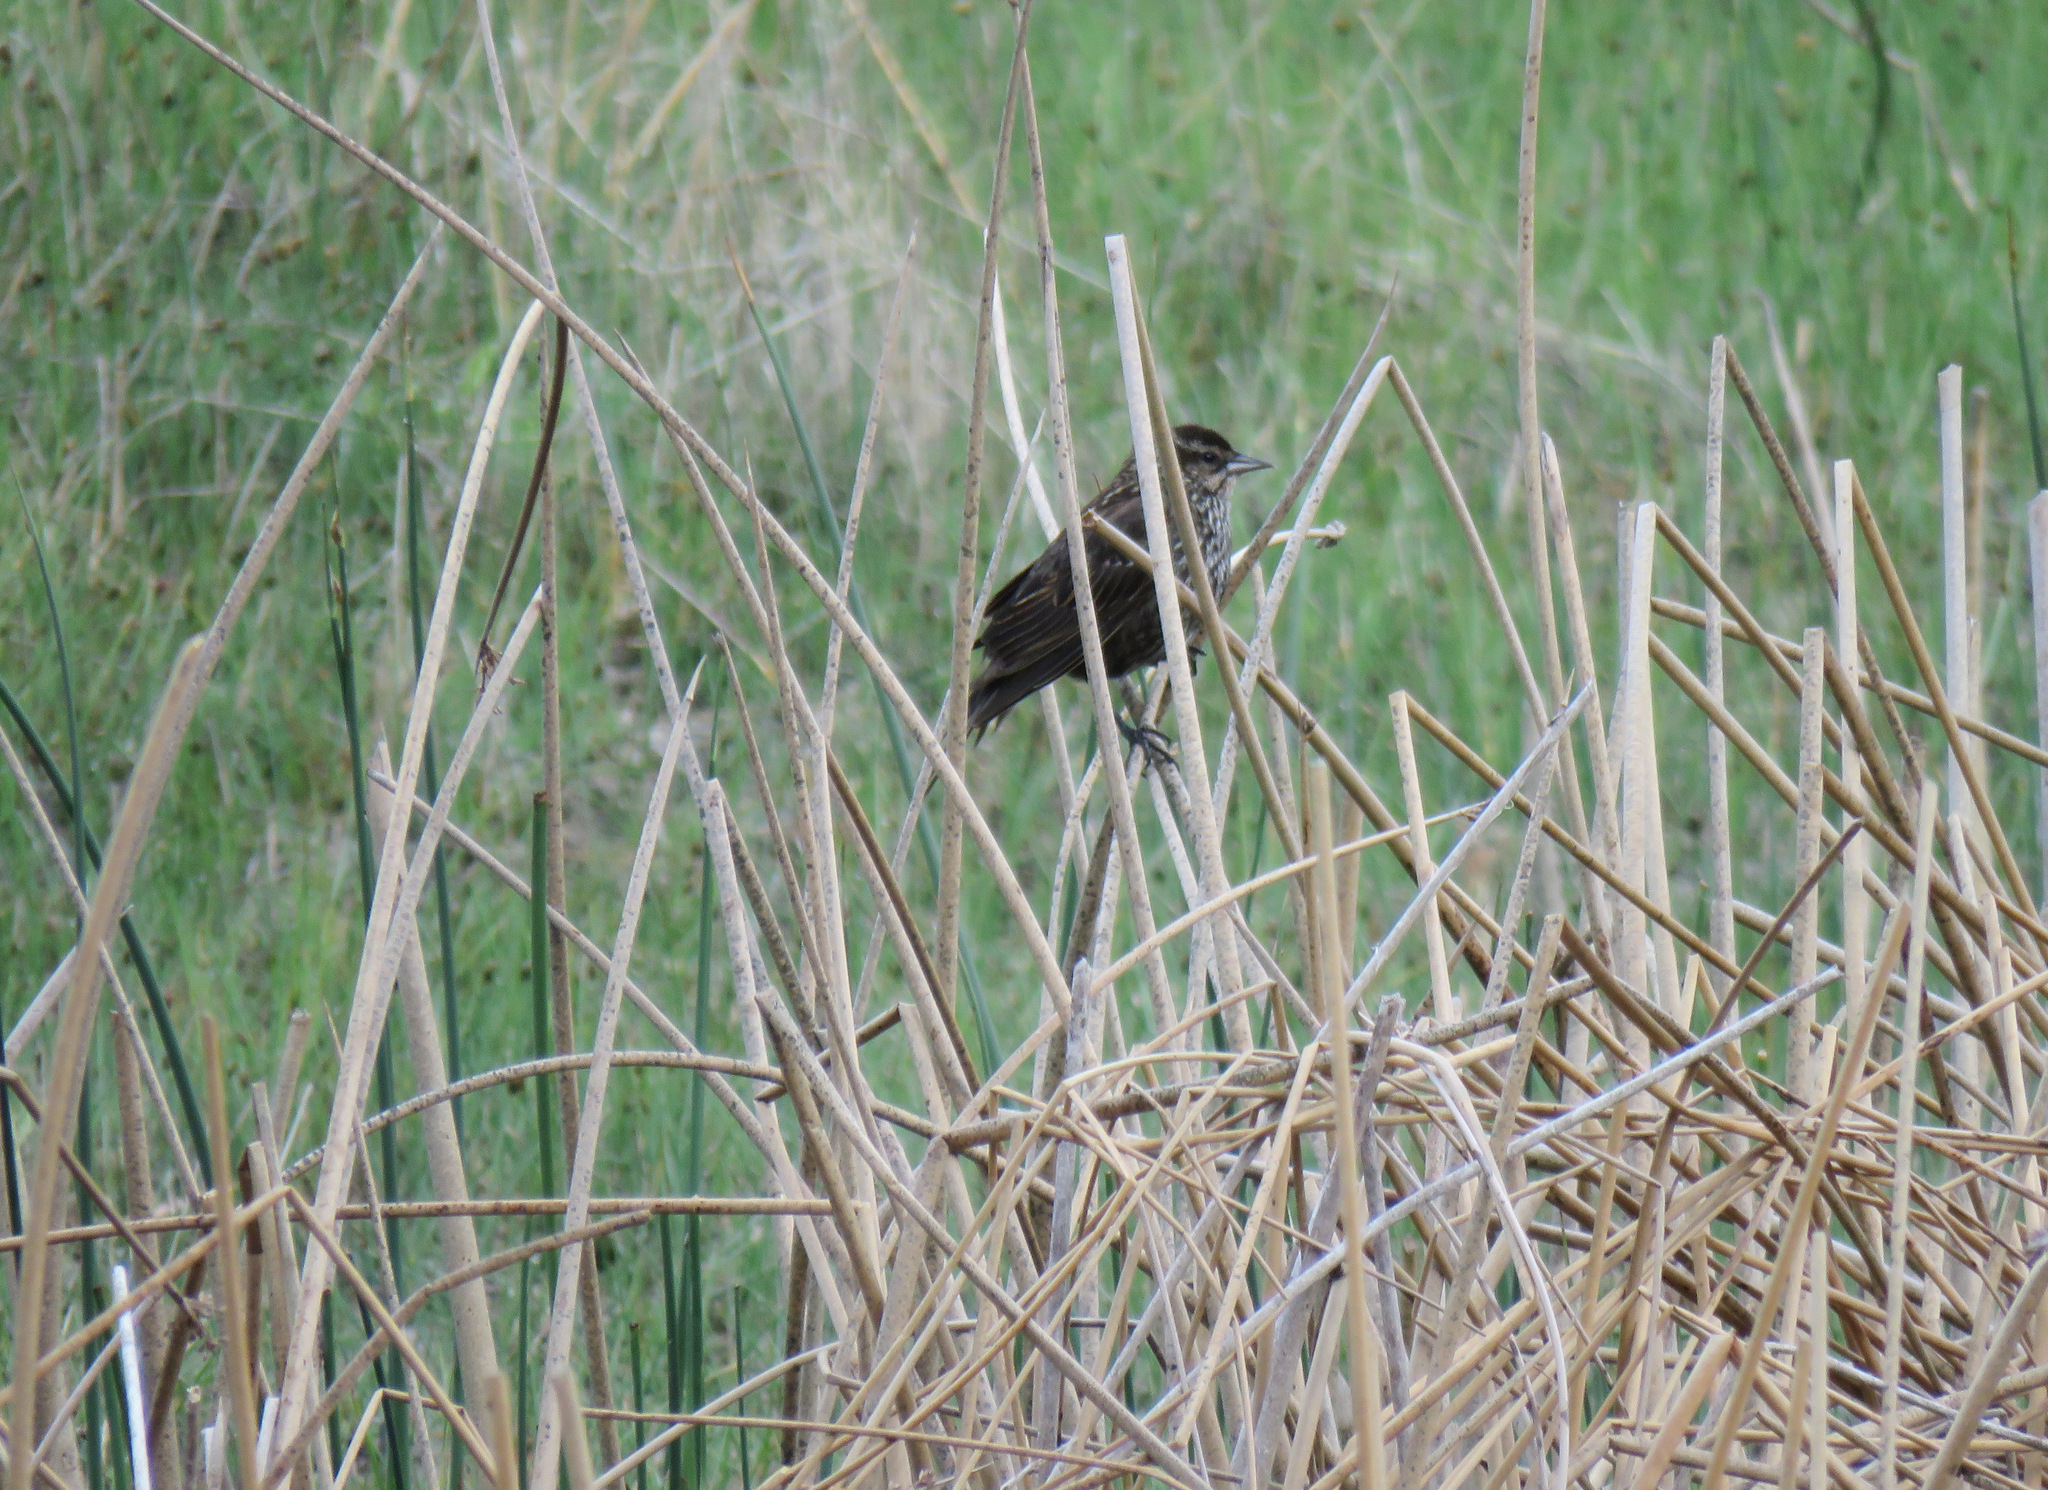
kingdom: Animalia
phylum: Chordata
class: Aves
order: Passeriformes
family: Icteridae
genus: Agelaius
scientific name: Agelaius phoeniceus
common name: Red-winged blackbird
